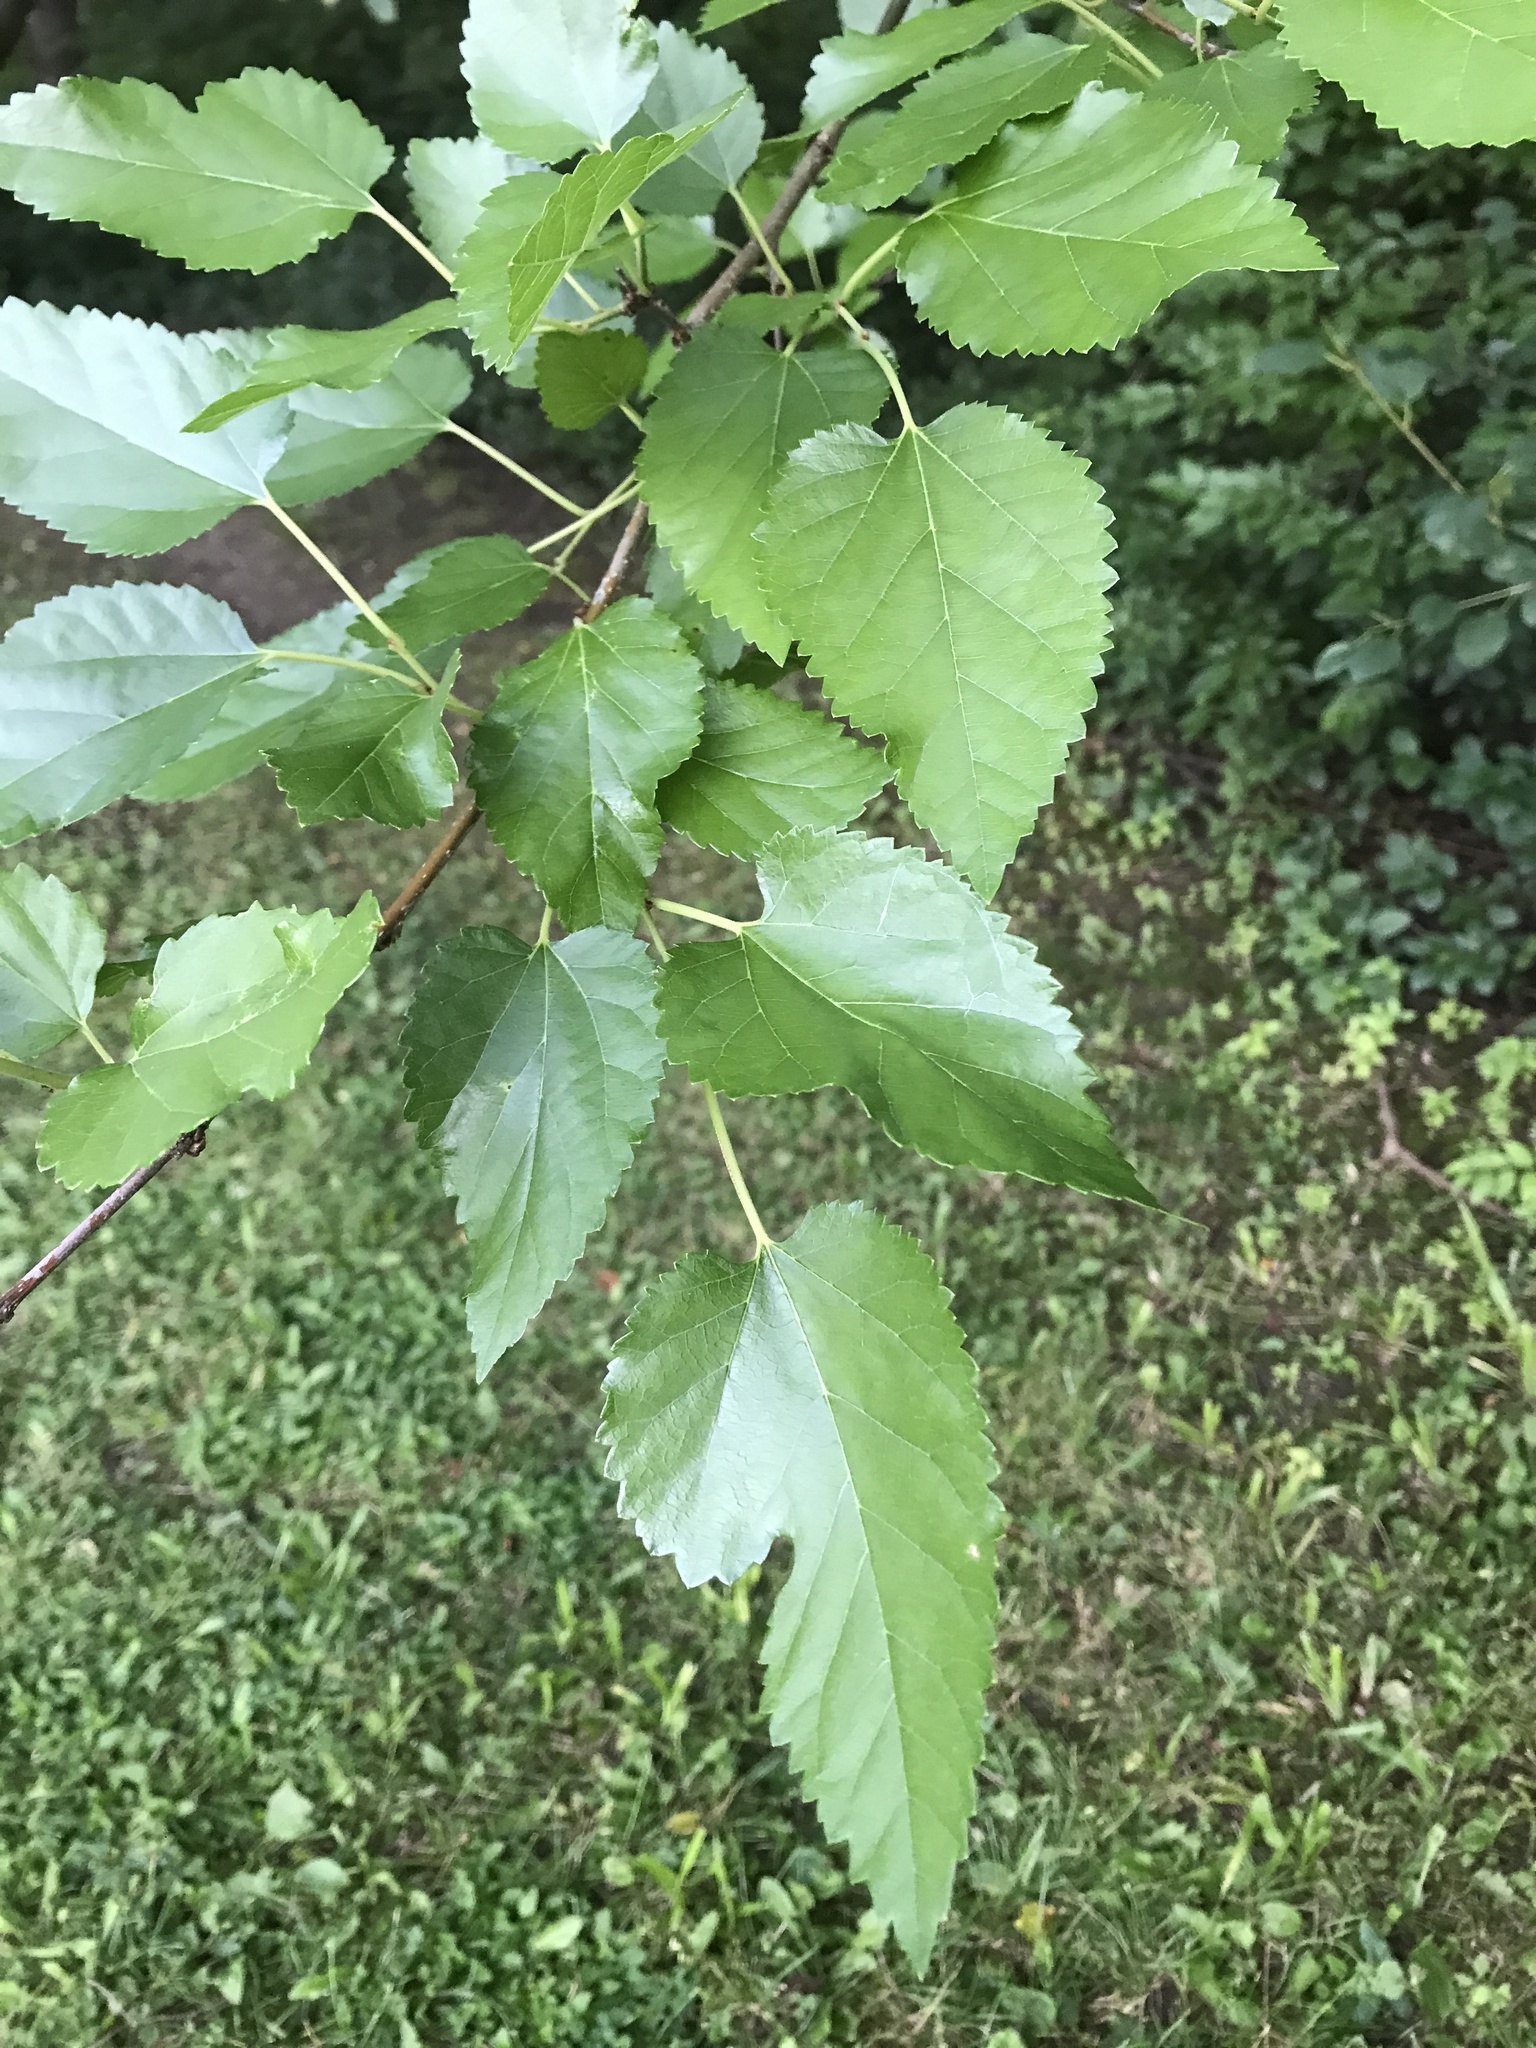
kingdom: Plantae
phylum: Tracheophyta
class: Magnoliopsida
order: Rosales
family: Moraceae
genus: Morus
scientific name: Morus alba
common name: White mulberry
